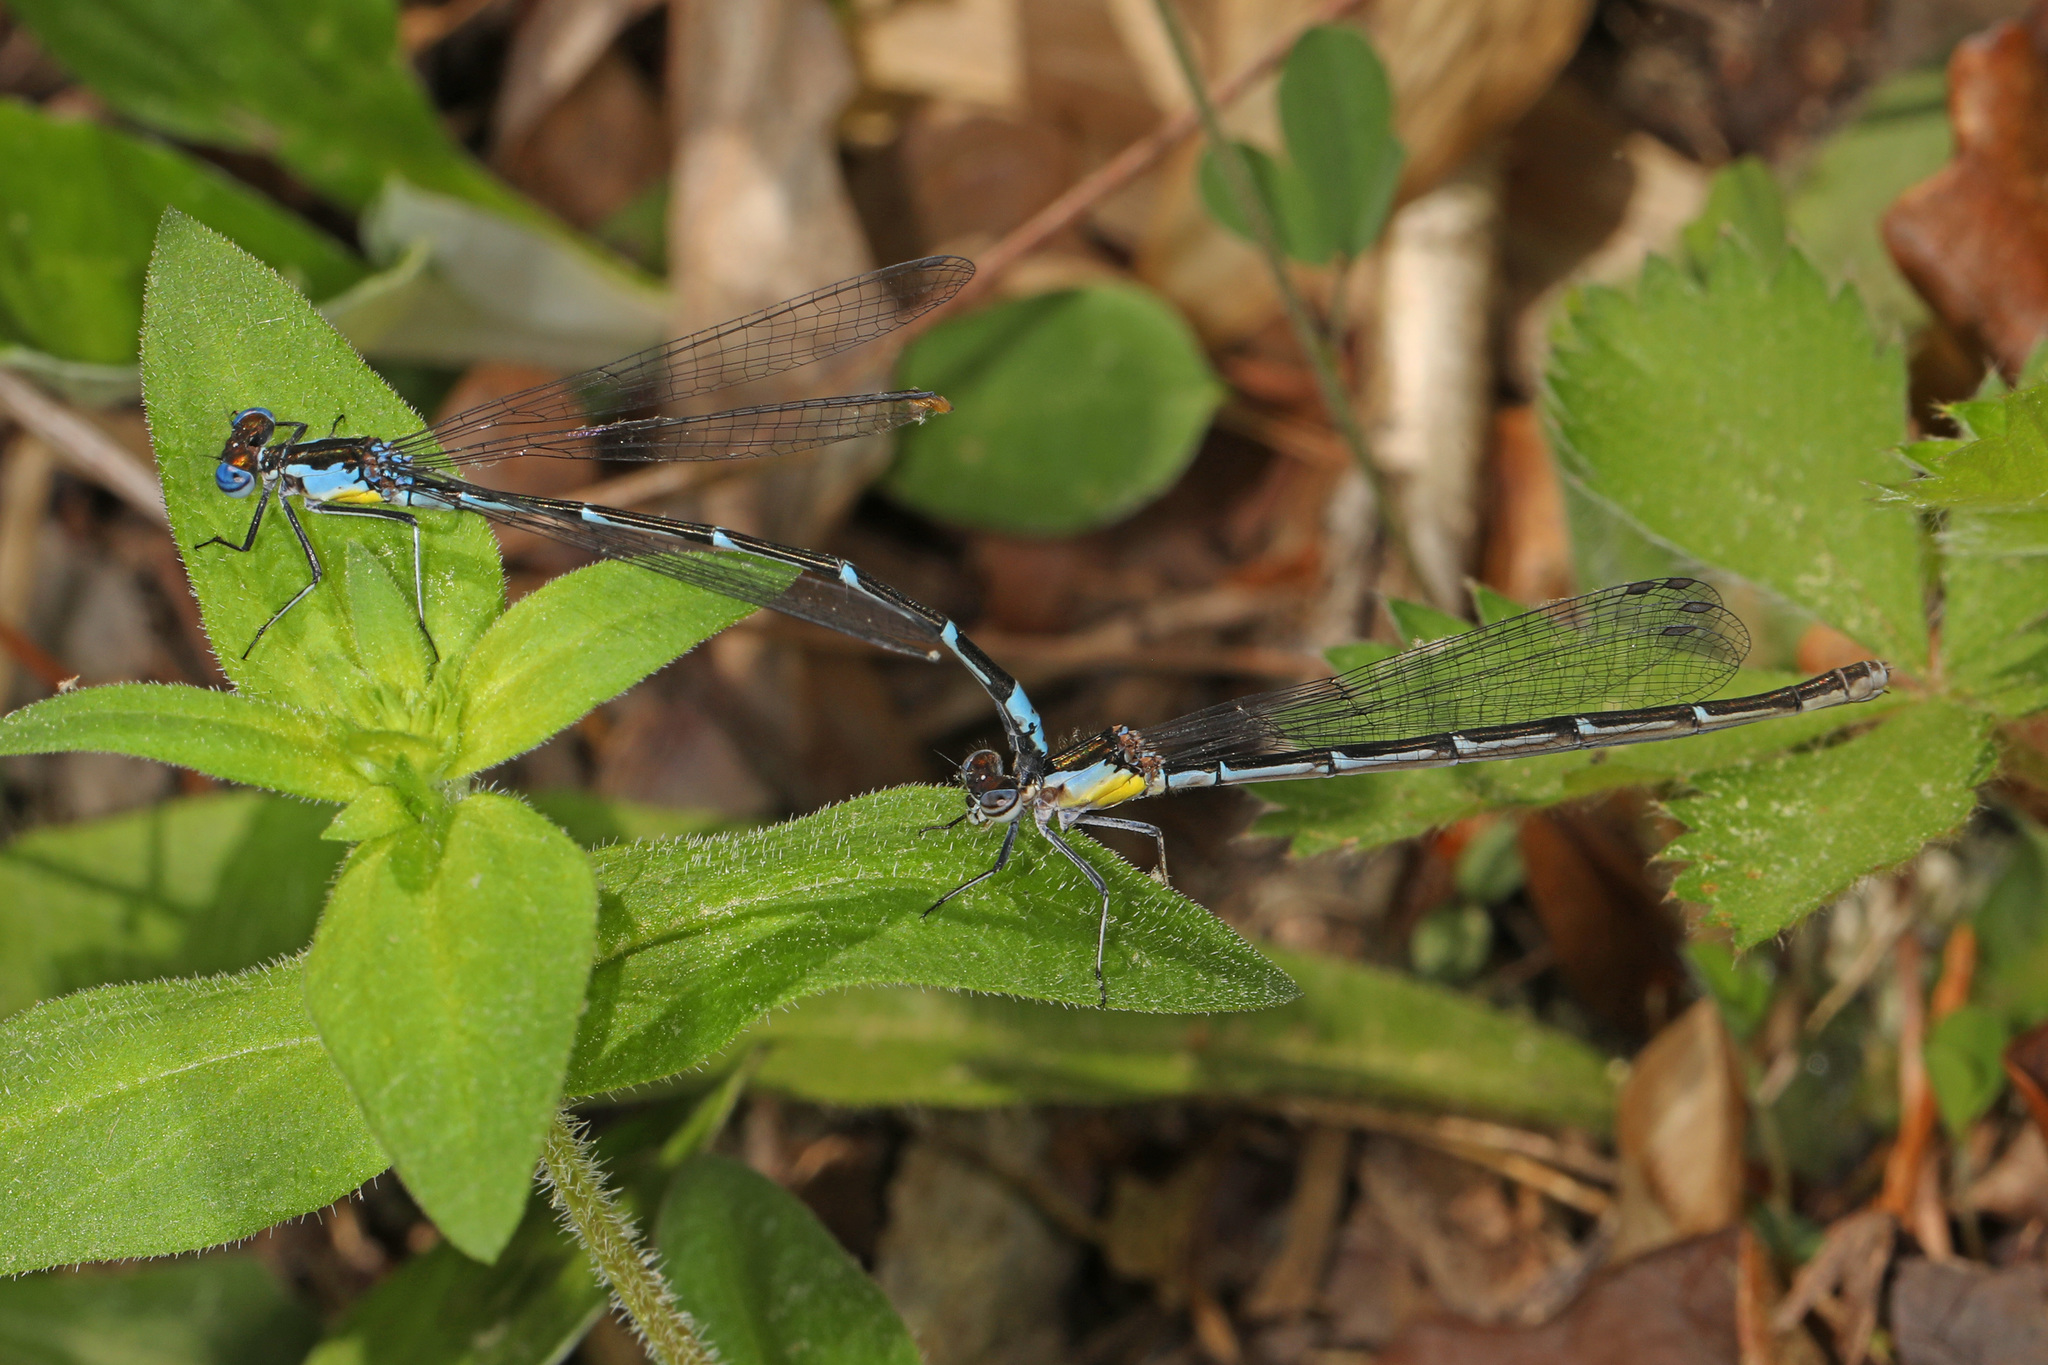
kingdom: Animalia
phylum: Arthropoda
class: Insecta
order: Odonata
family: Coenagrionidae
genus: Chromagrion
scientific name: Chromagrion conditum
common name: Aurora damsel
